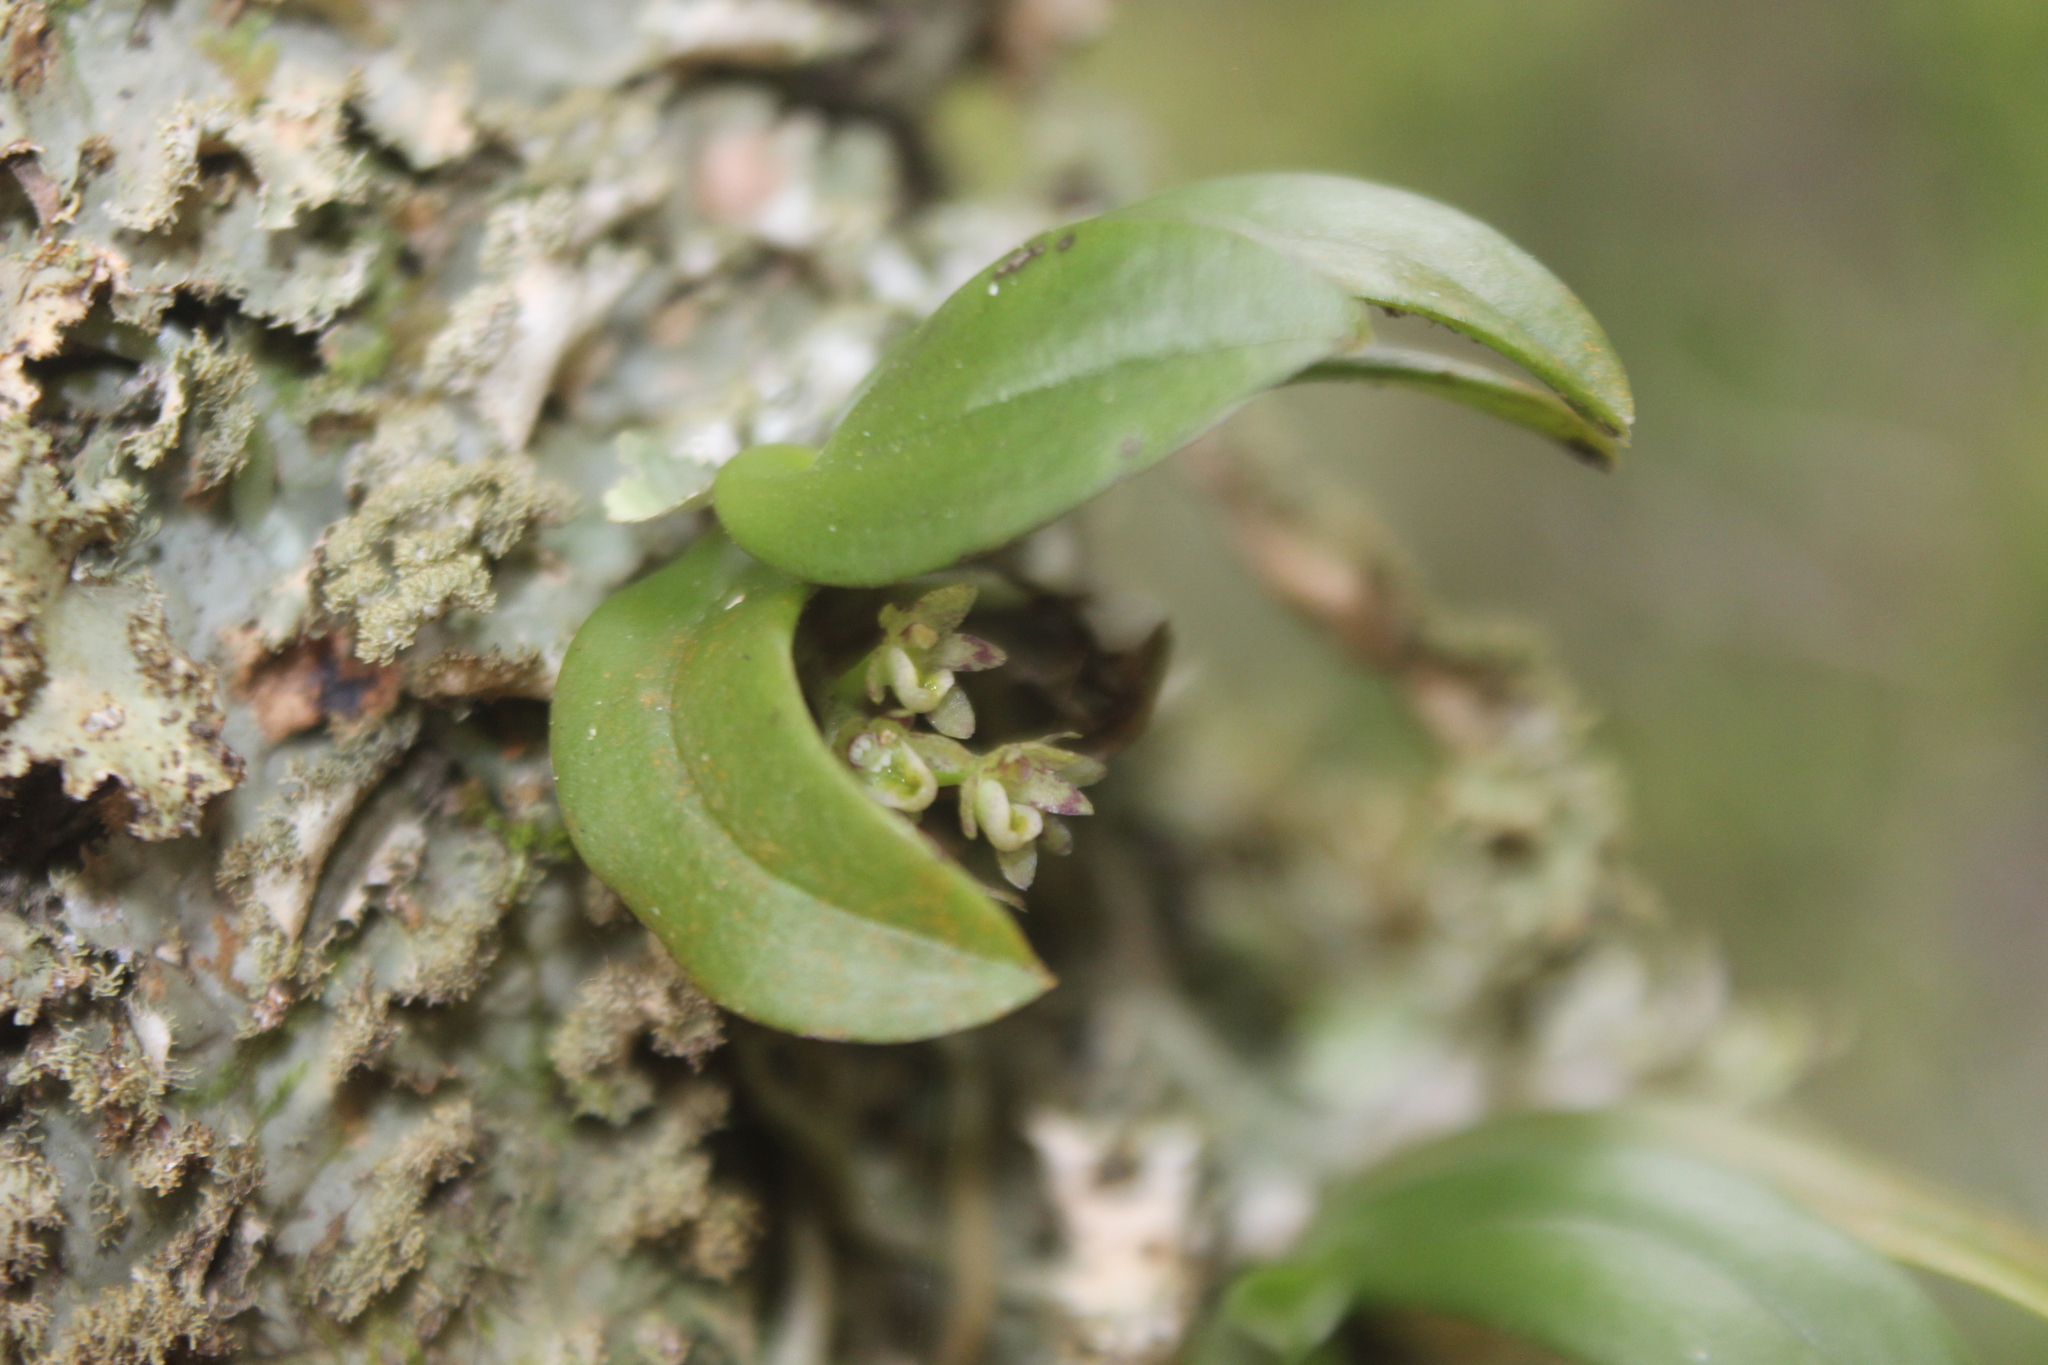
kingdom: Plantae
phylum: Tracheophyta
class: Liliopsida
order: Asparagales
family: Orchidaceae
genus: Drymoanthus
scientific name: Drymoanthus adversus
